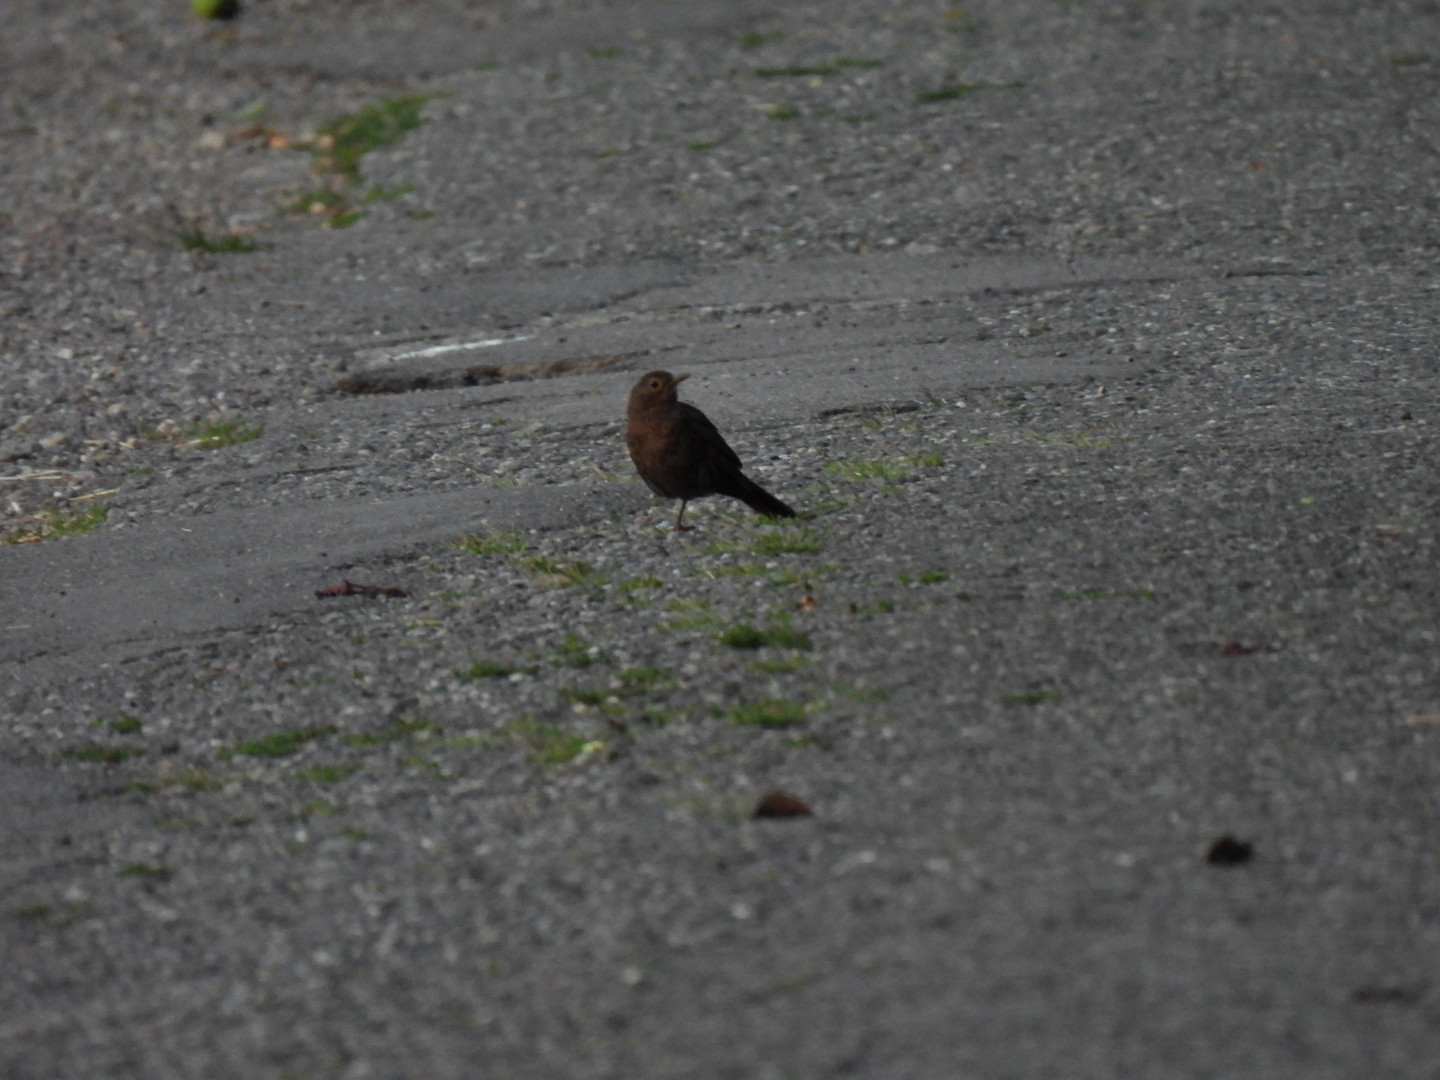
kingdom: Animalia
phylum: Chordata
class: Aves
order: Passeriformes
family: Turdidae
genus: Turdus
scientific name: Turdus merula
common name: Common blackbird
